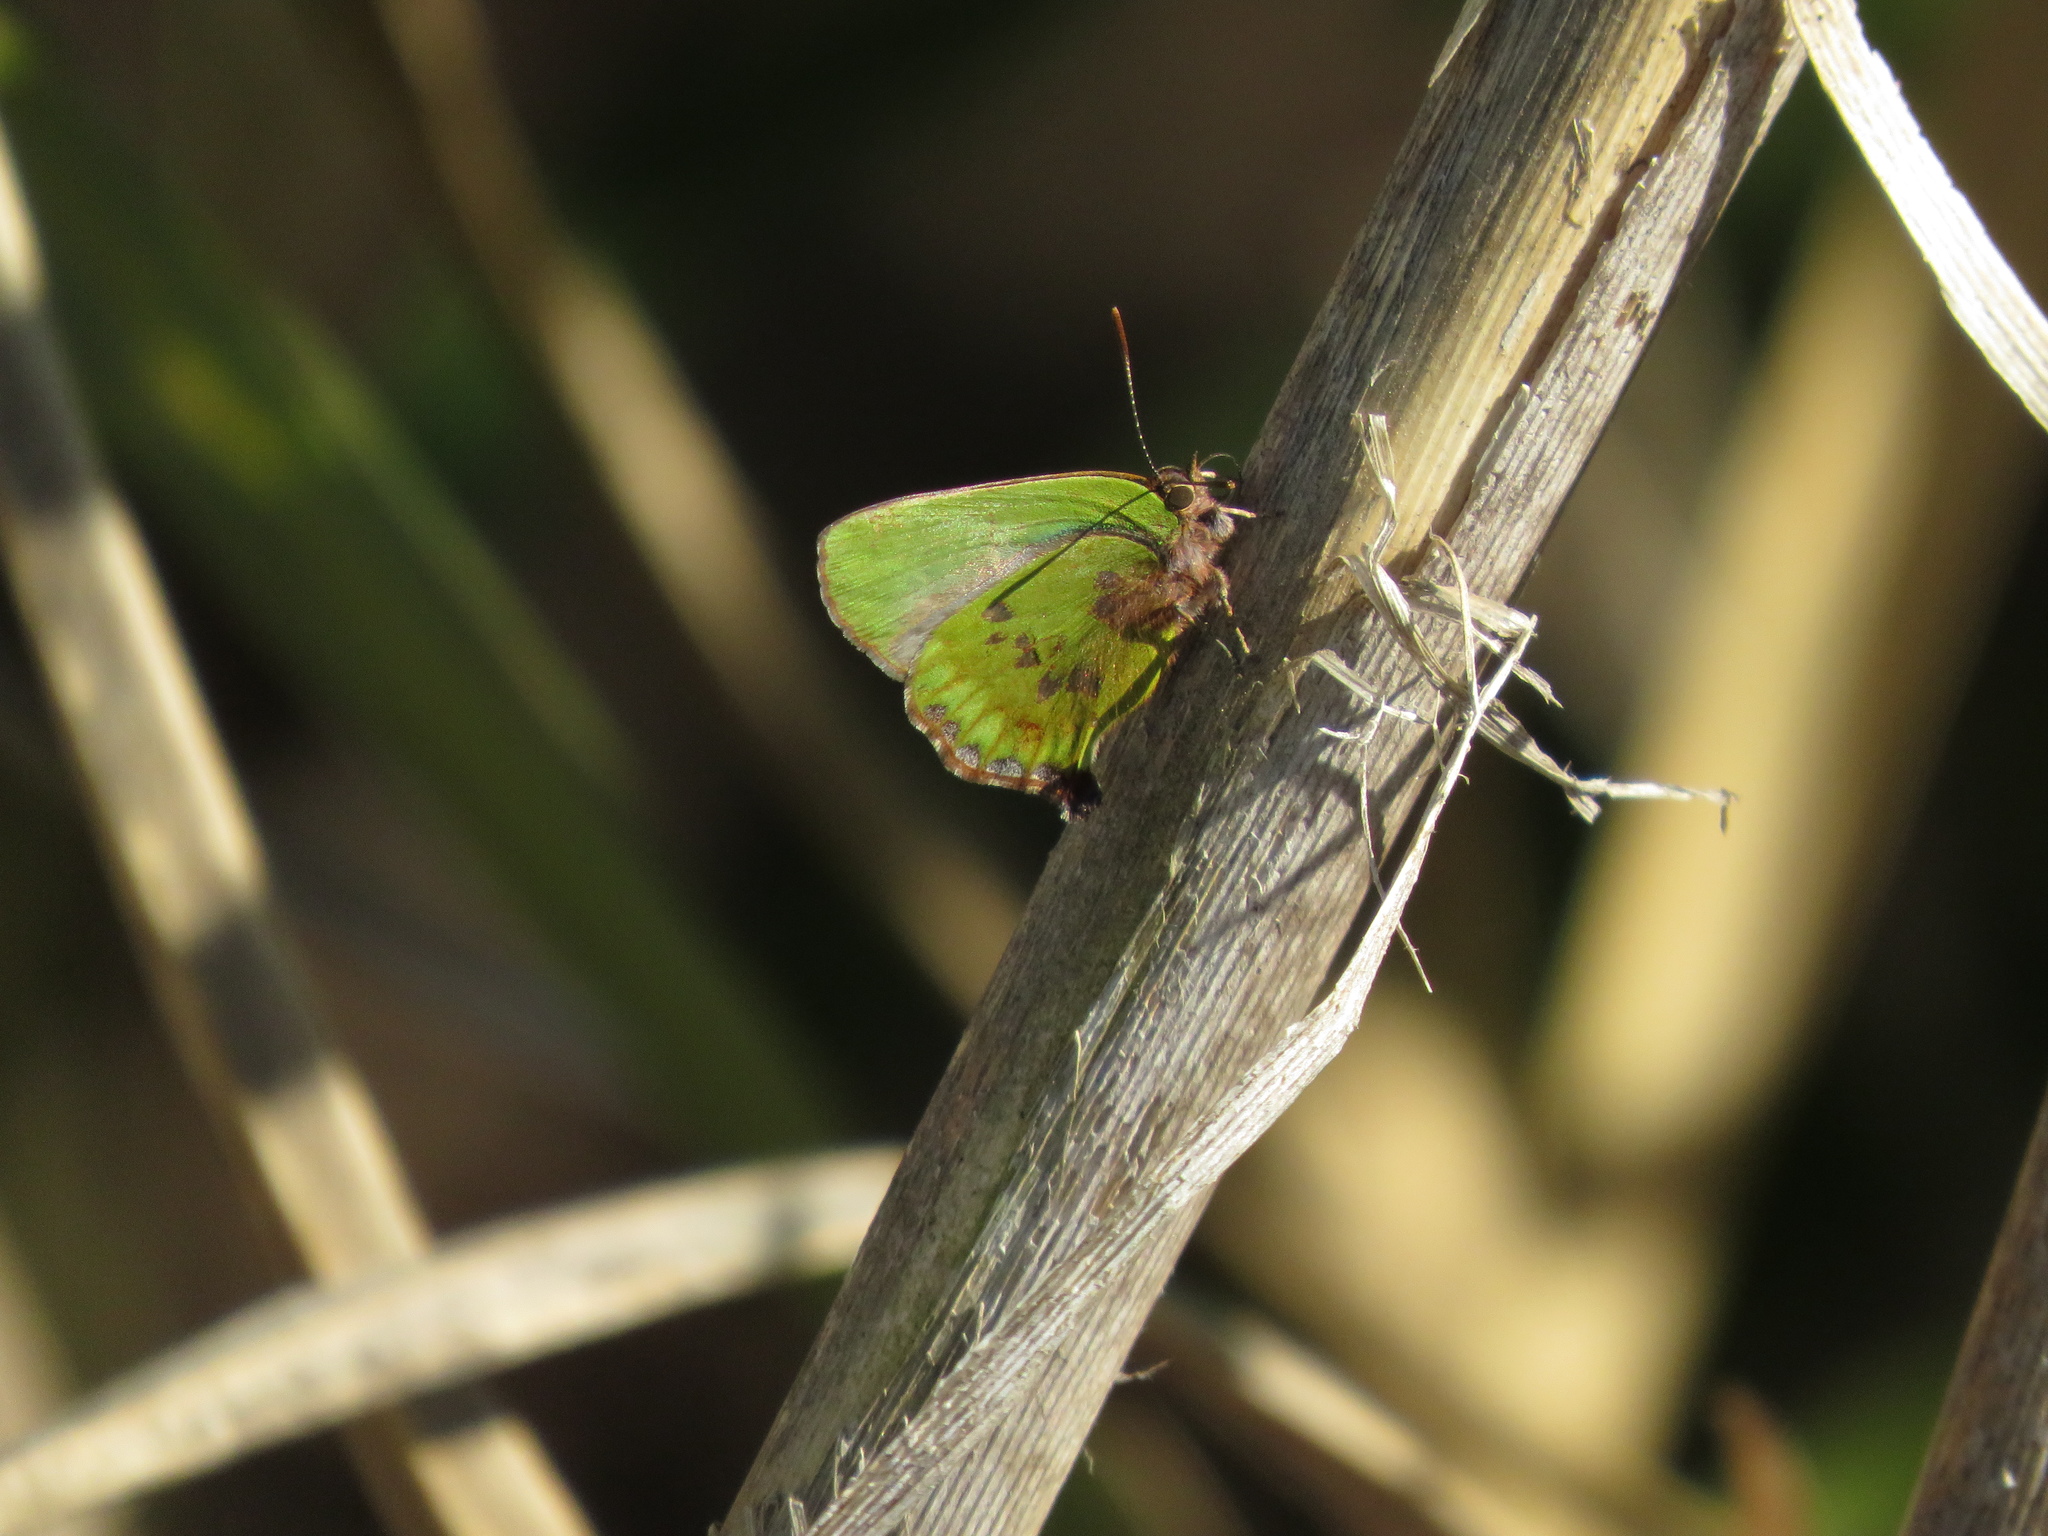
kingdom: Animalia
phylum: Arthropoda
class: Insecta
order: Lepidoptera
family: Lycaenidae
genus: Cyanophrys
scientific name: Cyanophrys
